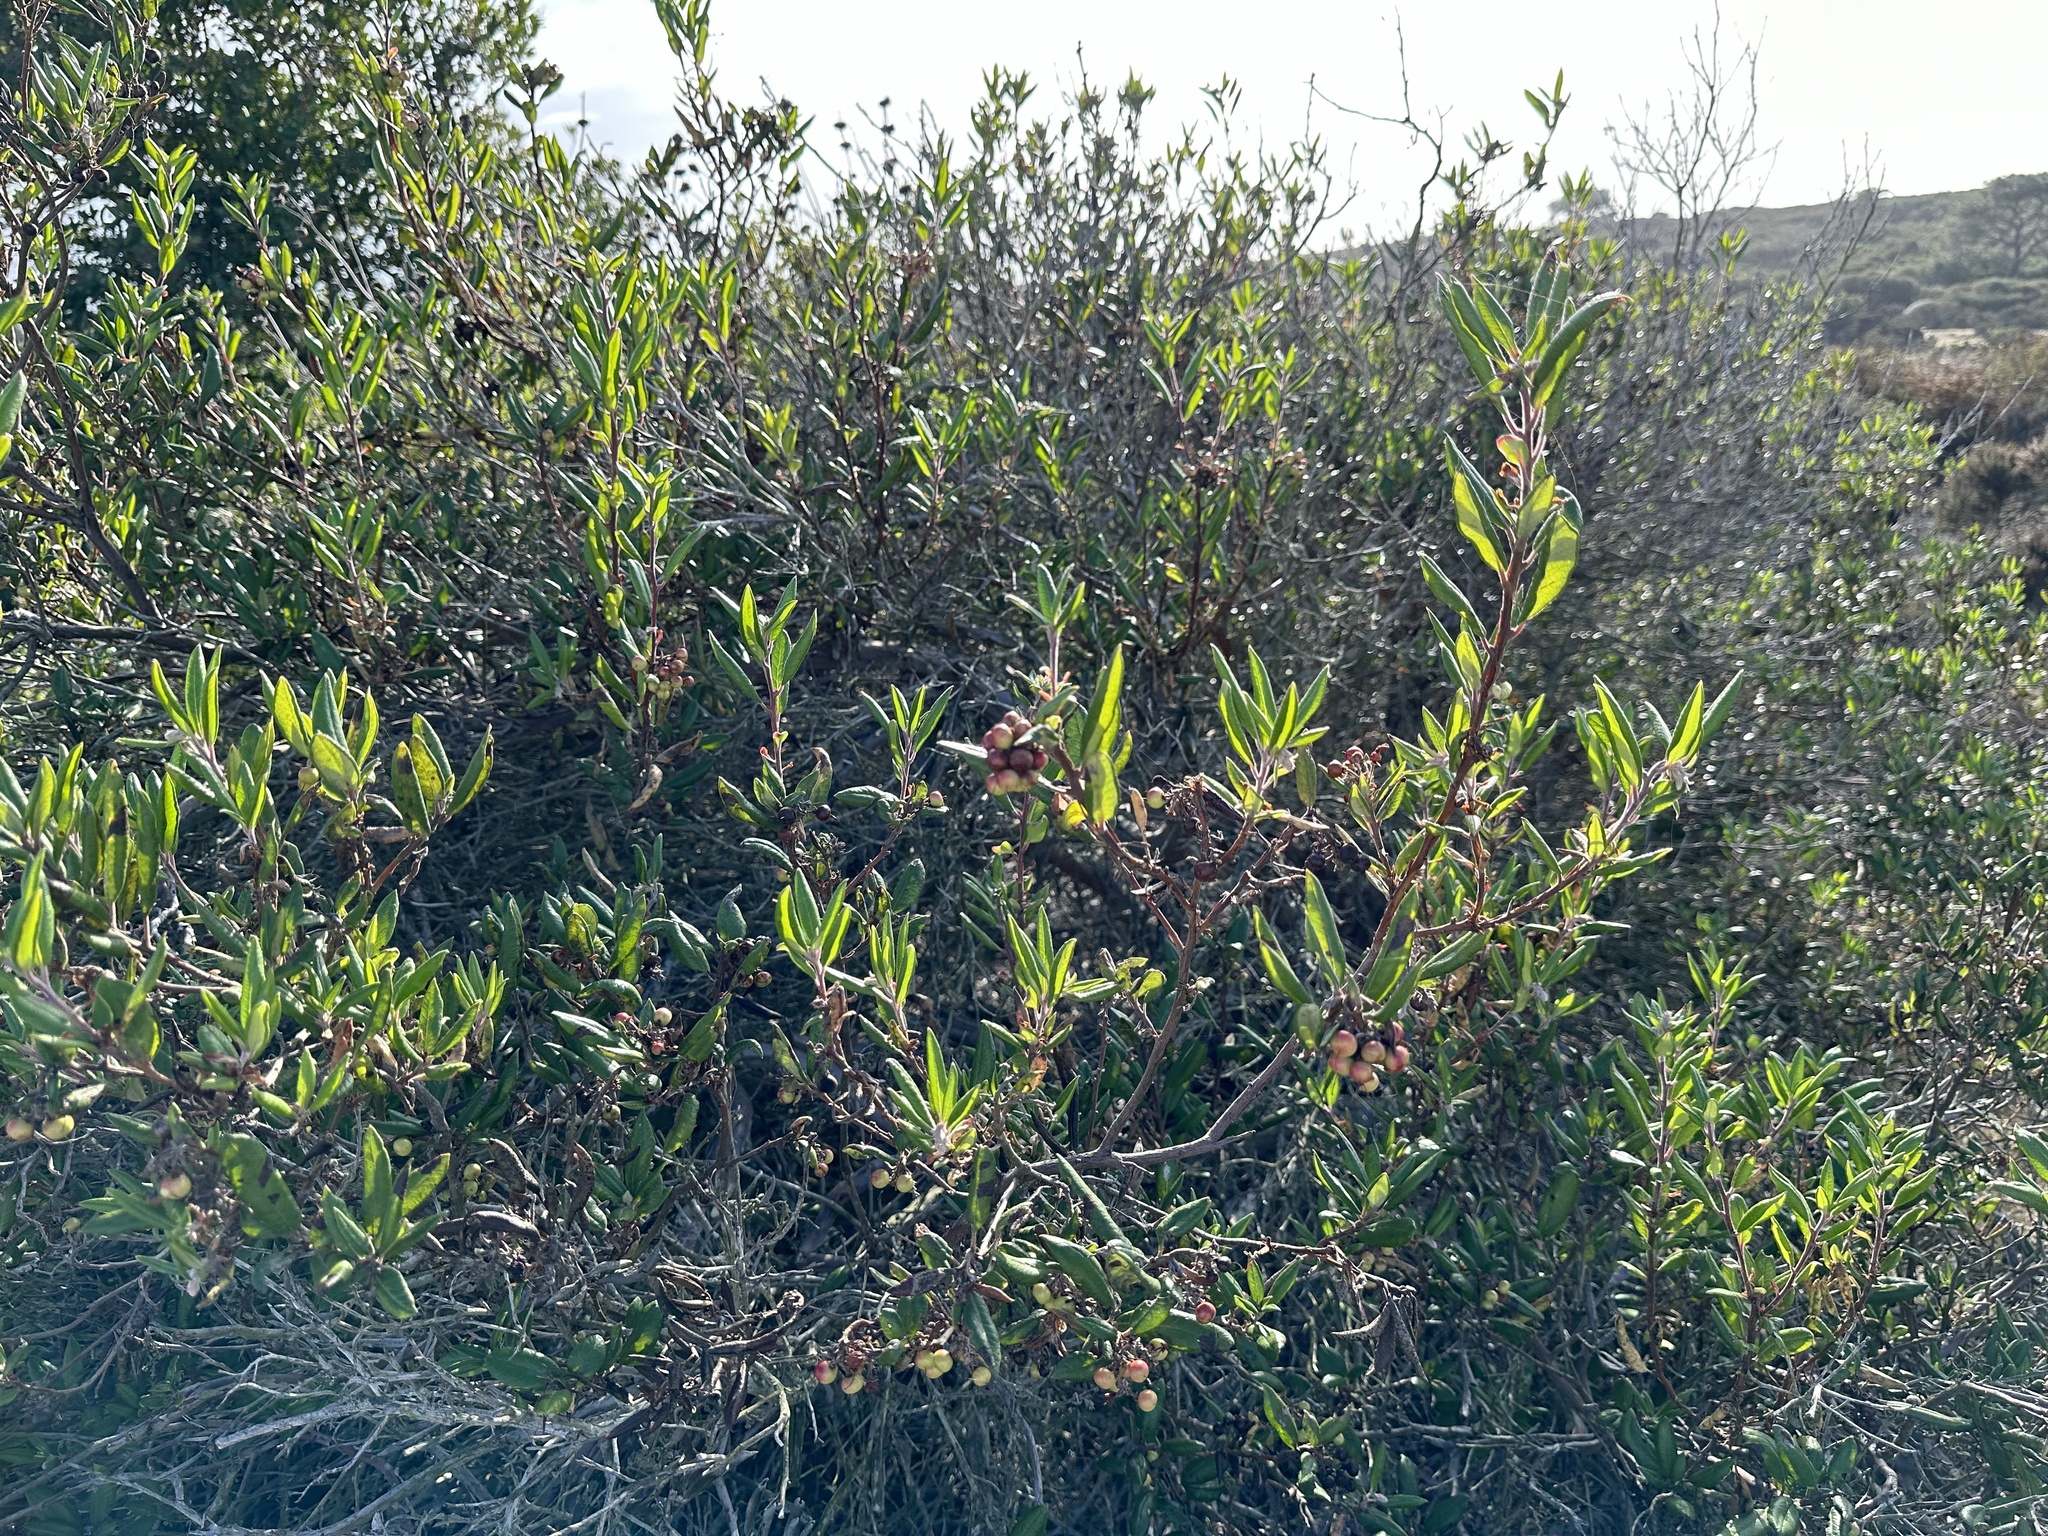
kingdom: Plantae
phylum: Tracheophyta
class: Magnoliopsida
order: Ericales
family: Ericaceae
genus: Arctostaphylos
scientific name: Arctostaphylos bicolor
